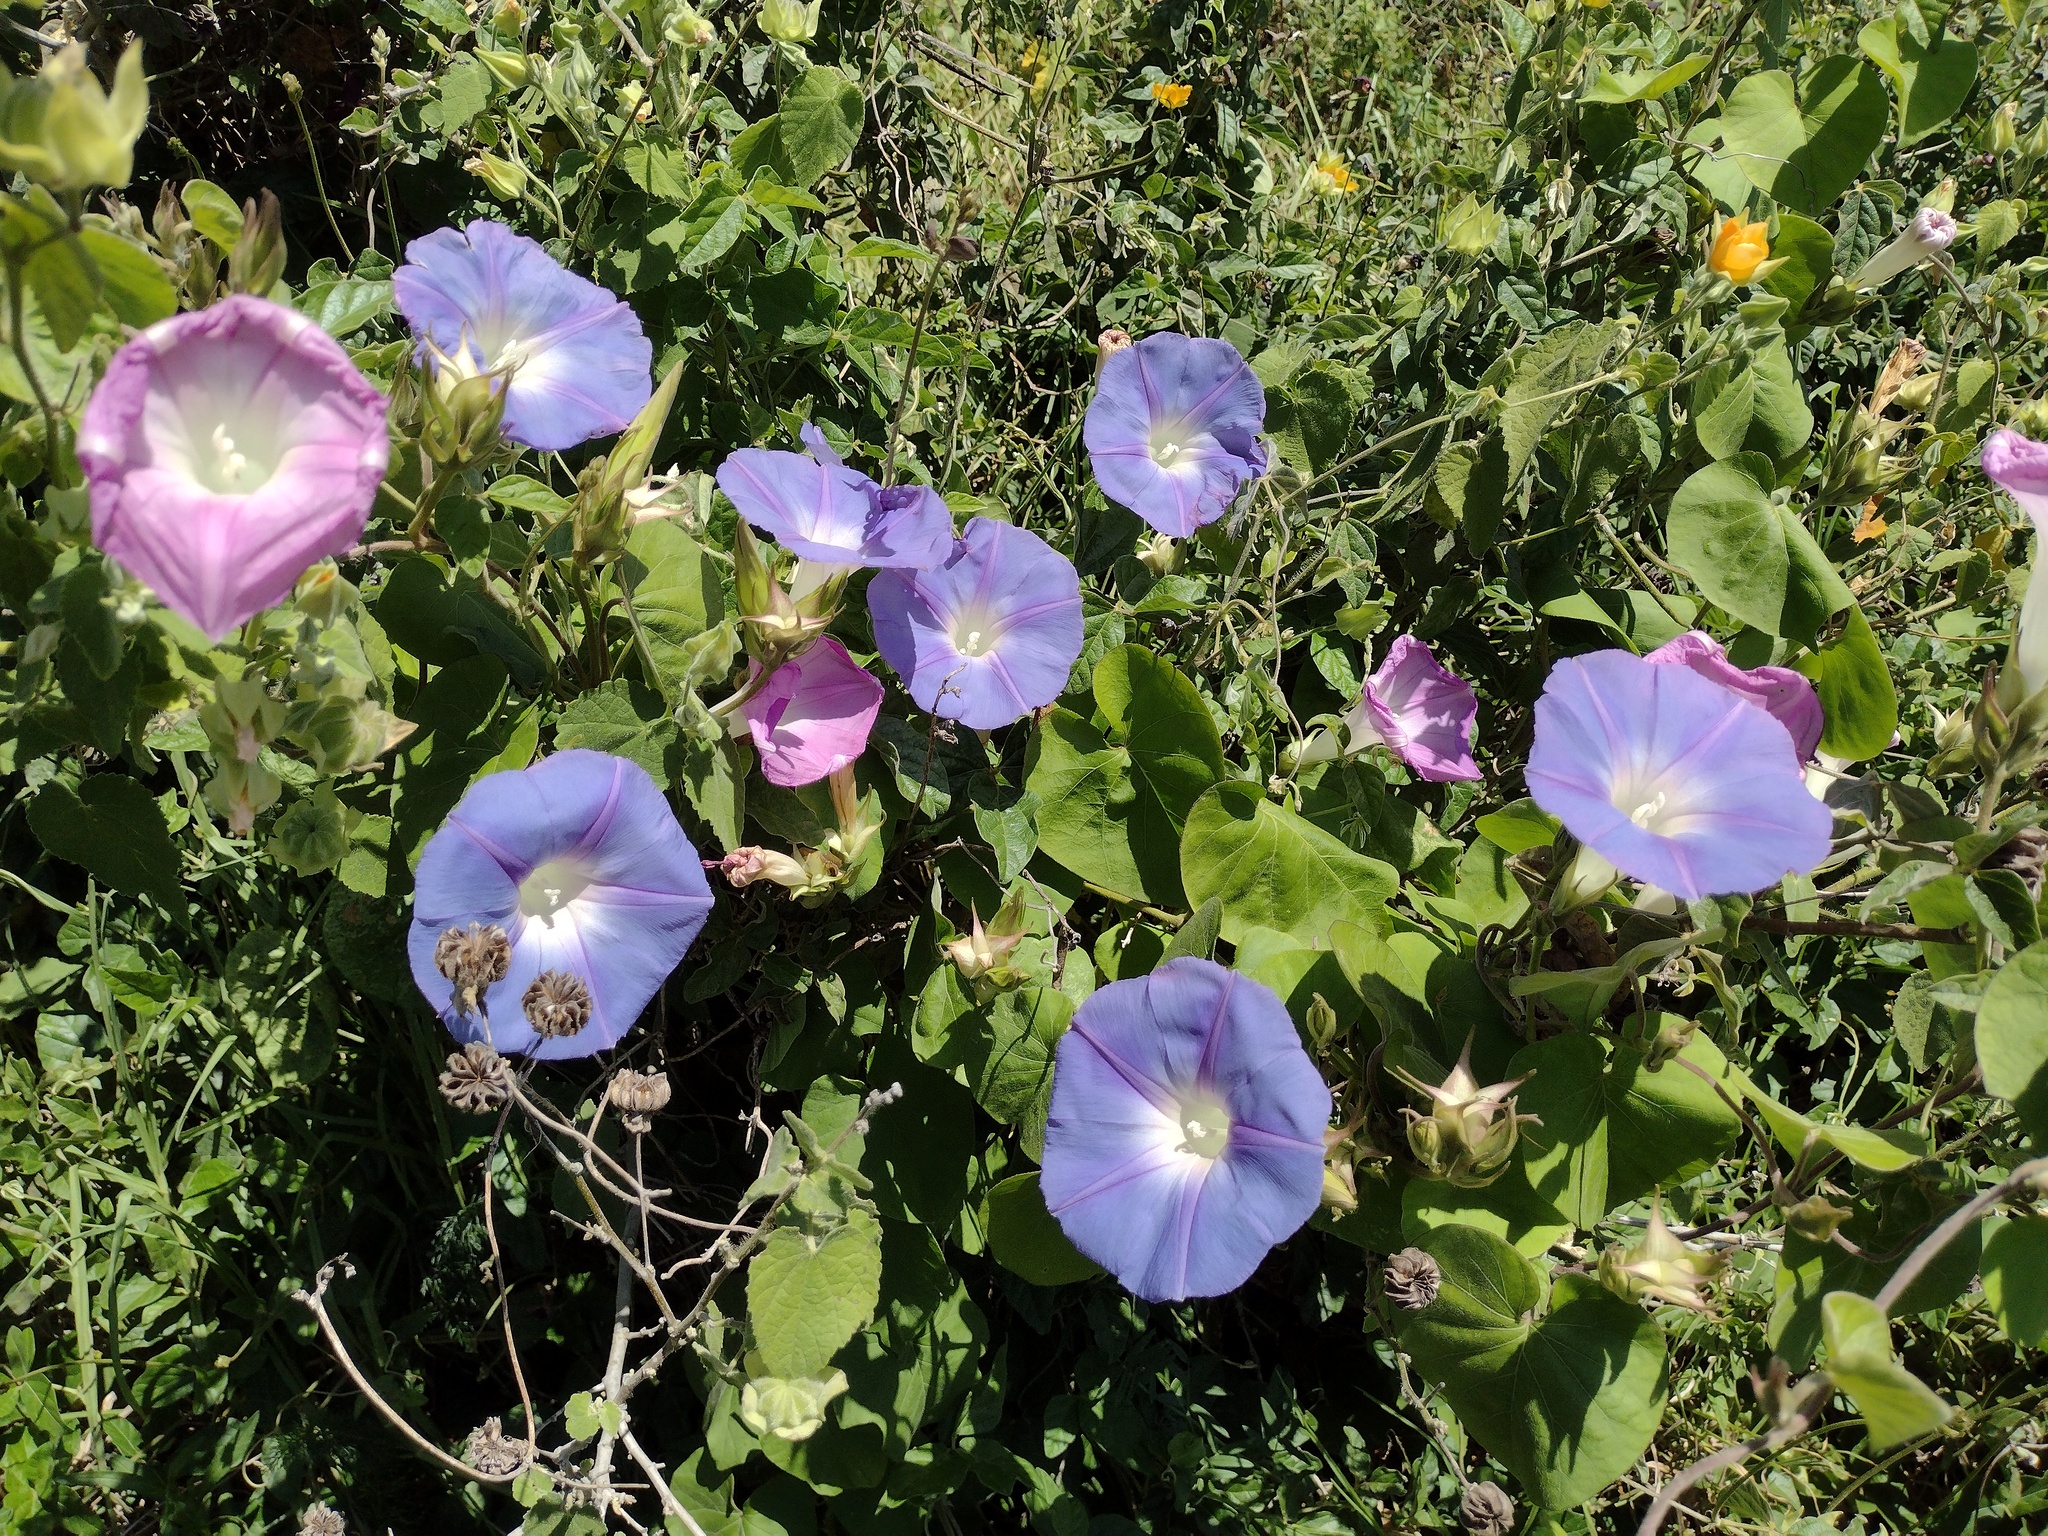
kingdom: Plantae
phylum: Tracheophyta
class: Magnoliopsida
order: Solanales
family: Convolvulaceae
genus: Ipomoea
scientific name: Ipomoea indica
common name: Blue dawnflower
